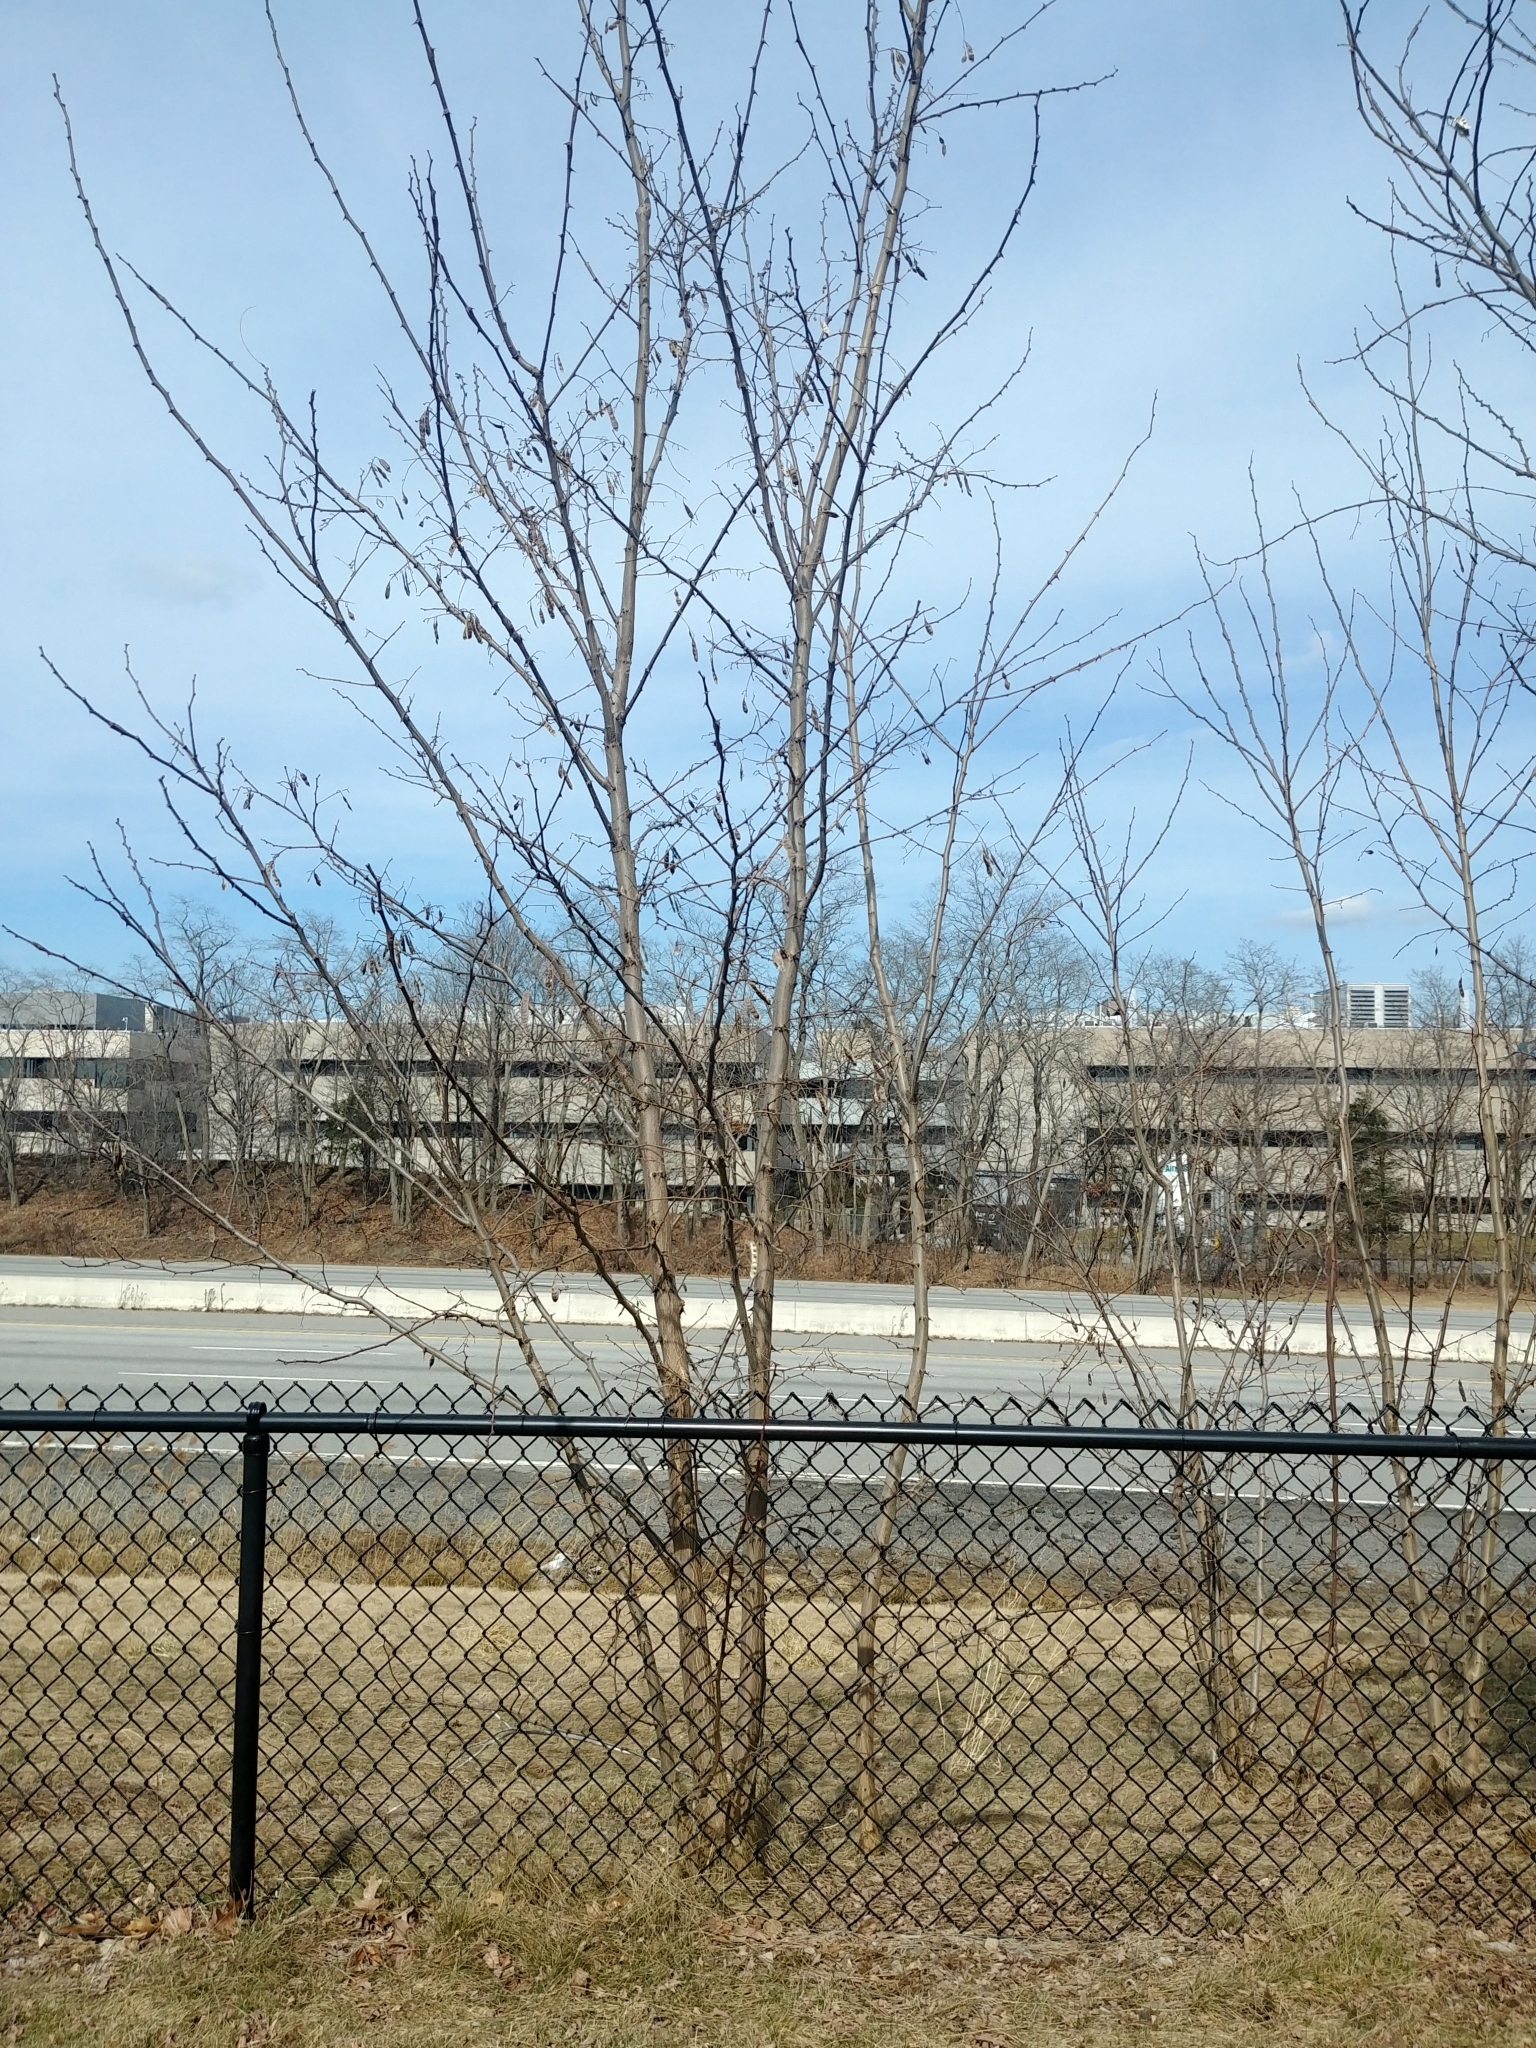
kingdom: Plantae
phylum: Tracheophyta
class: Magnoliopsida
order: Fabales
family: Fabaceae
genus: Robinia
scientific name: Robinia pseudoacacia
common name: Black locust
